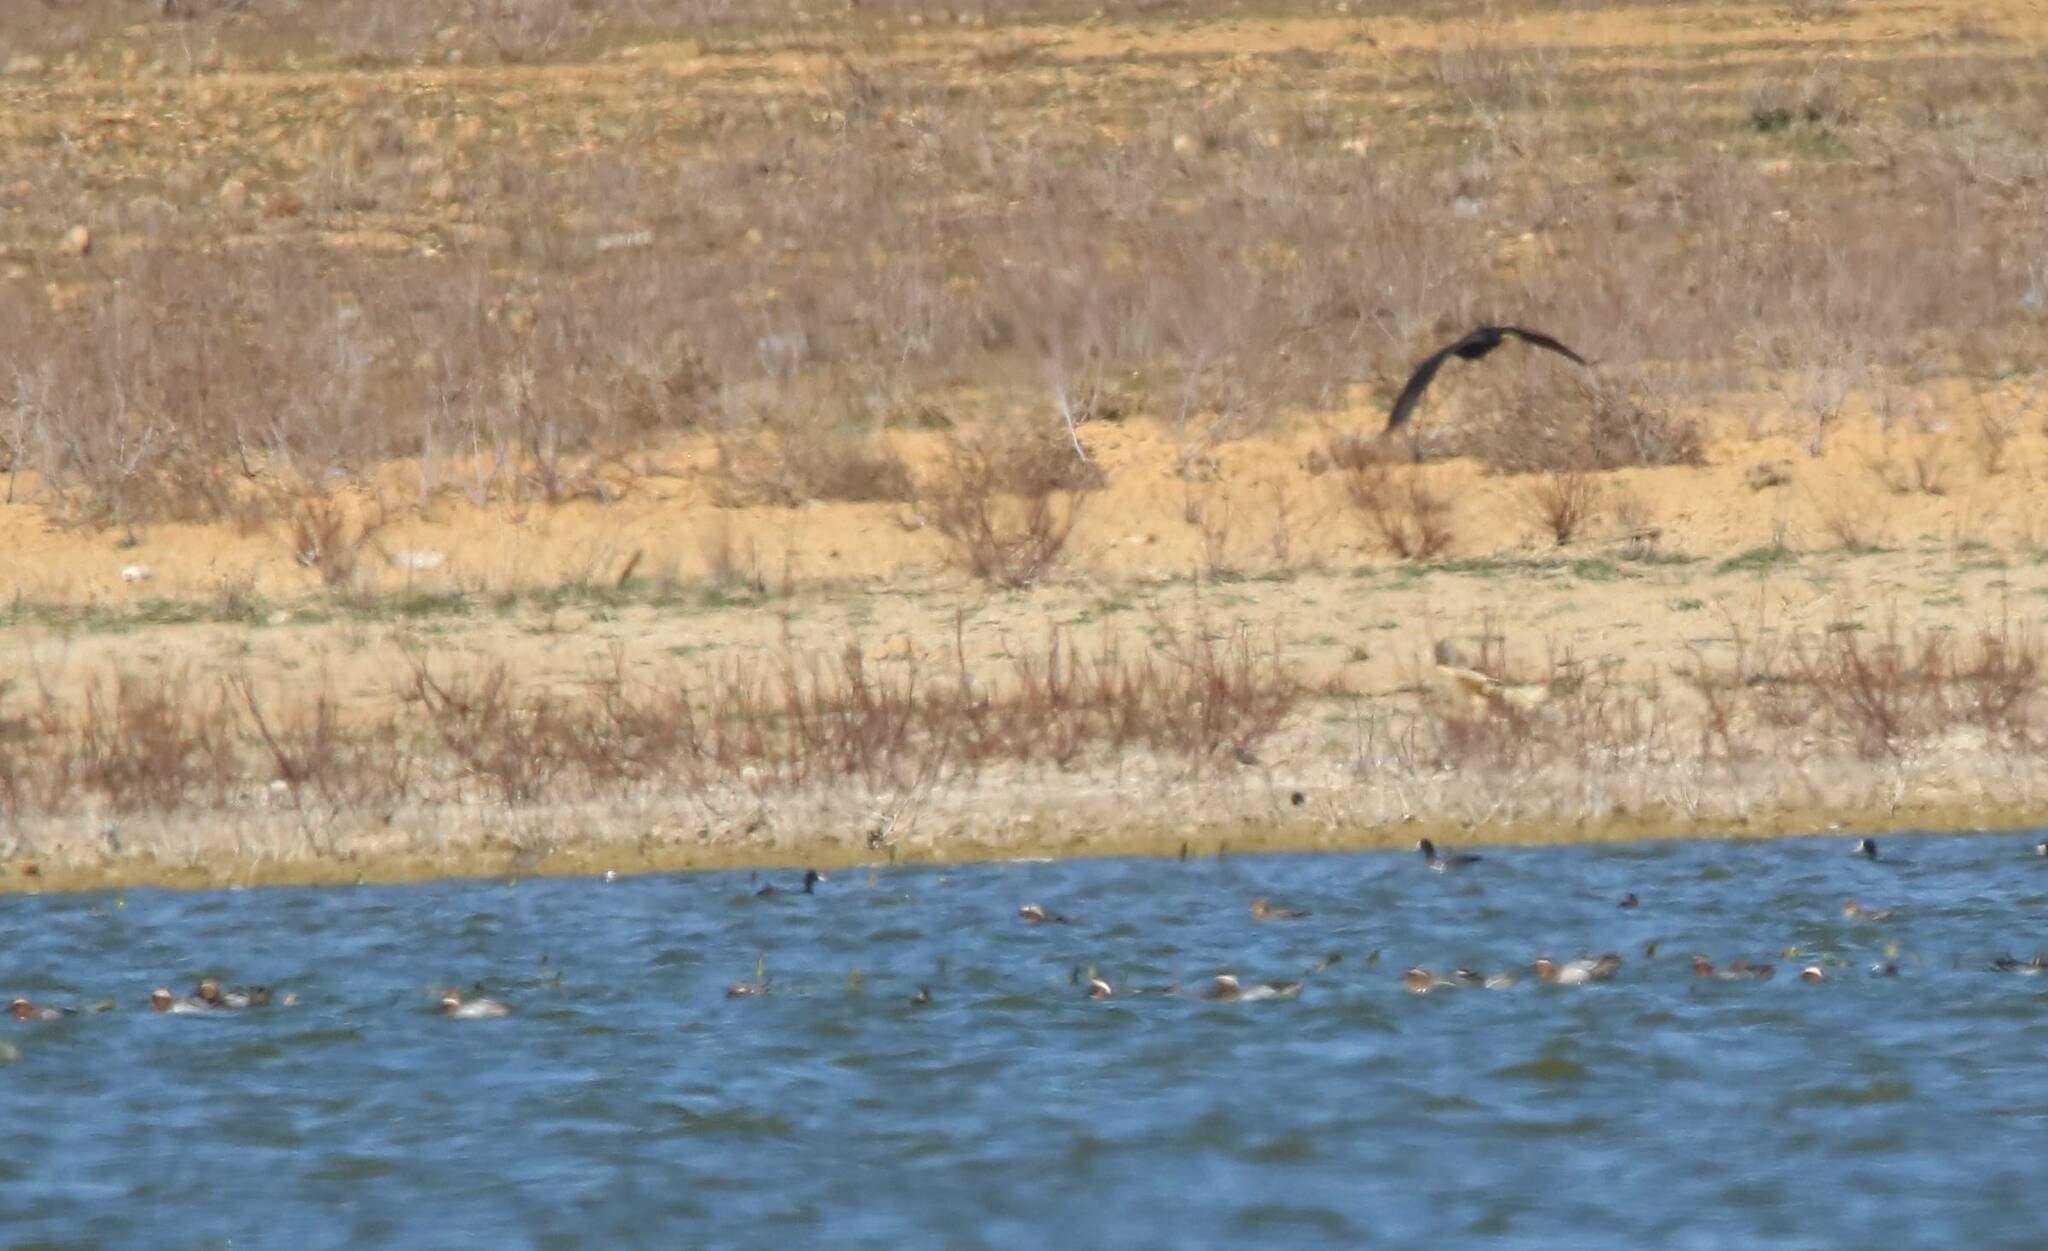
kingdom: Animalia
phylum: Chordata
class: Aves
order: Anseriformes
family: Anatidae
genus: Spatula
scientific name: Spatula querquedula
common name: Garganey
